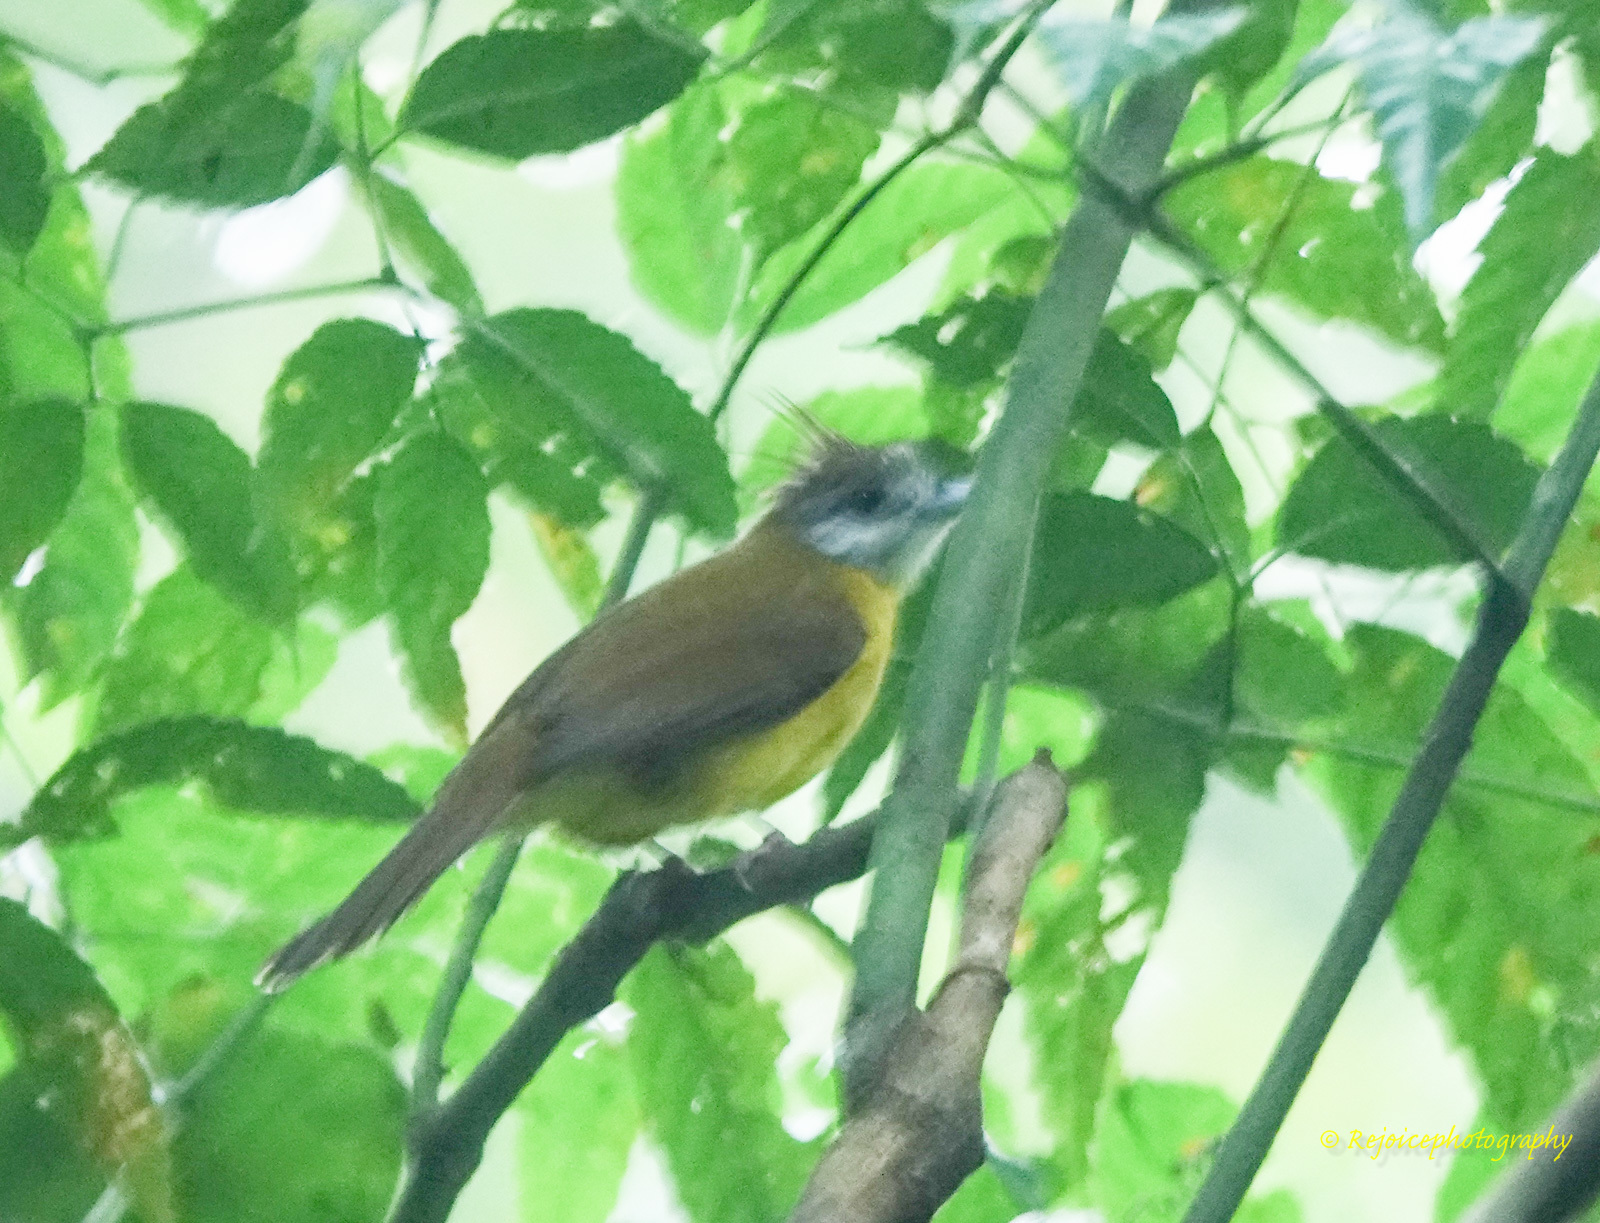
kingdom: Animalia
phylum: Chordata
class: Aves
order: Passeriformes
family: Pycnonotidae
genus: Alophoixus
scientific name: Alophoixus flaveolus
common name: White-throated bulbul
